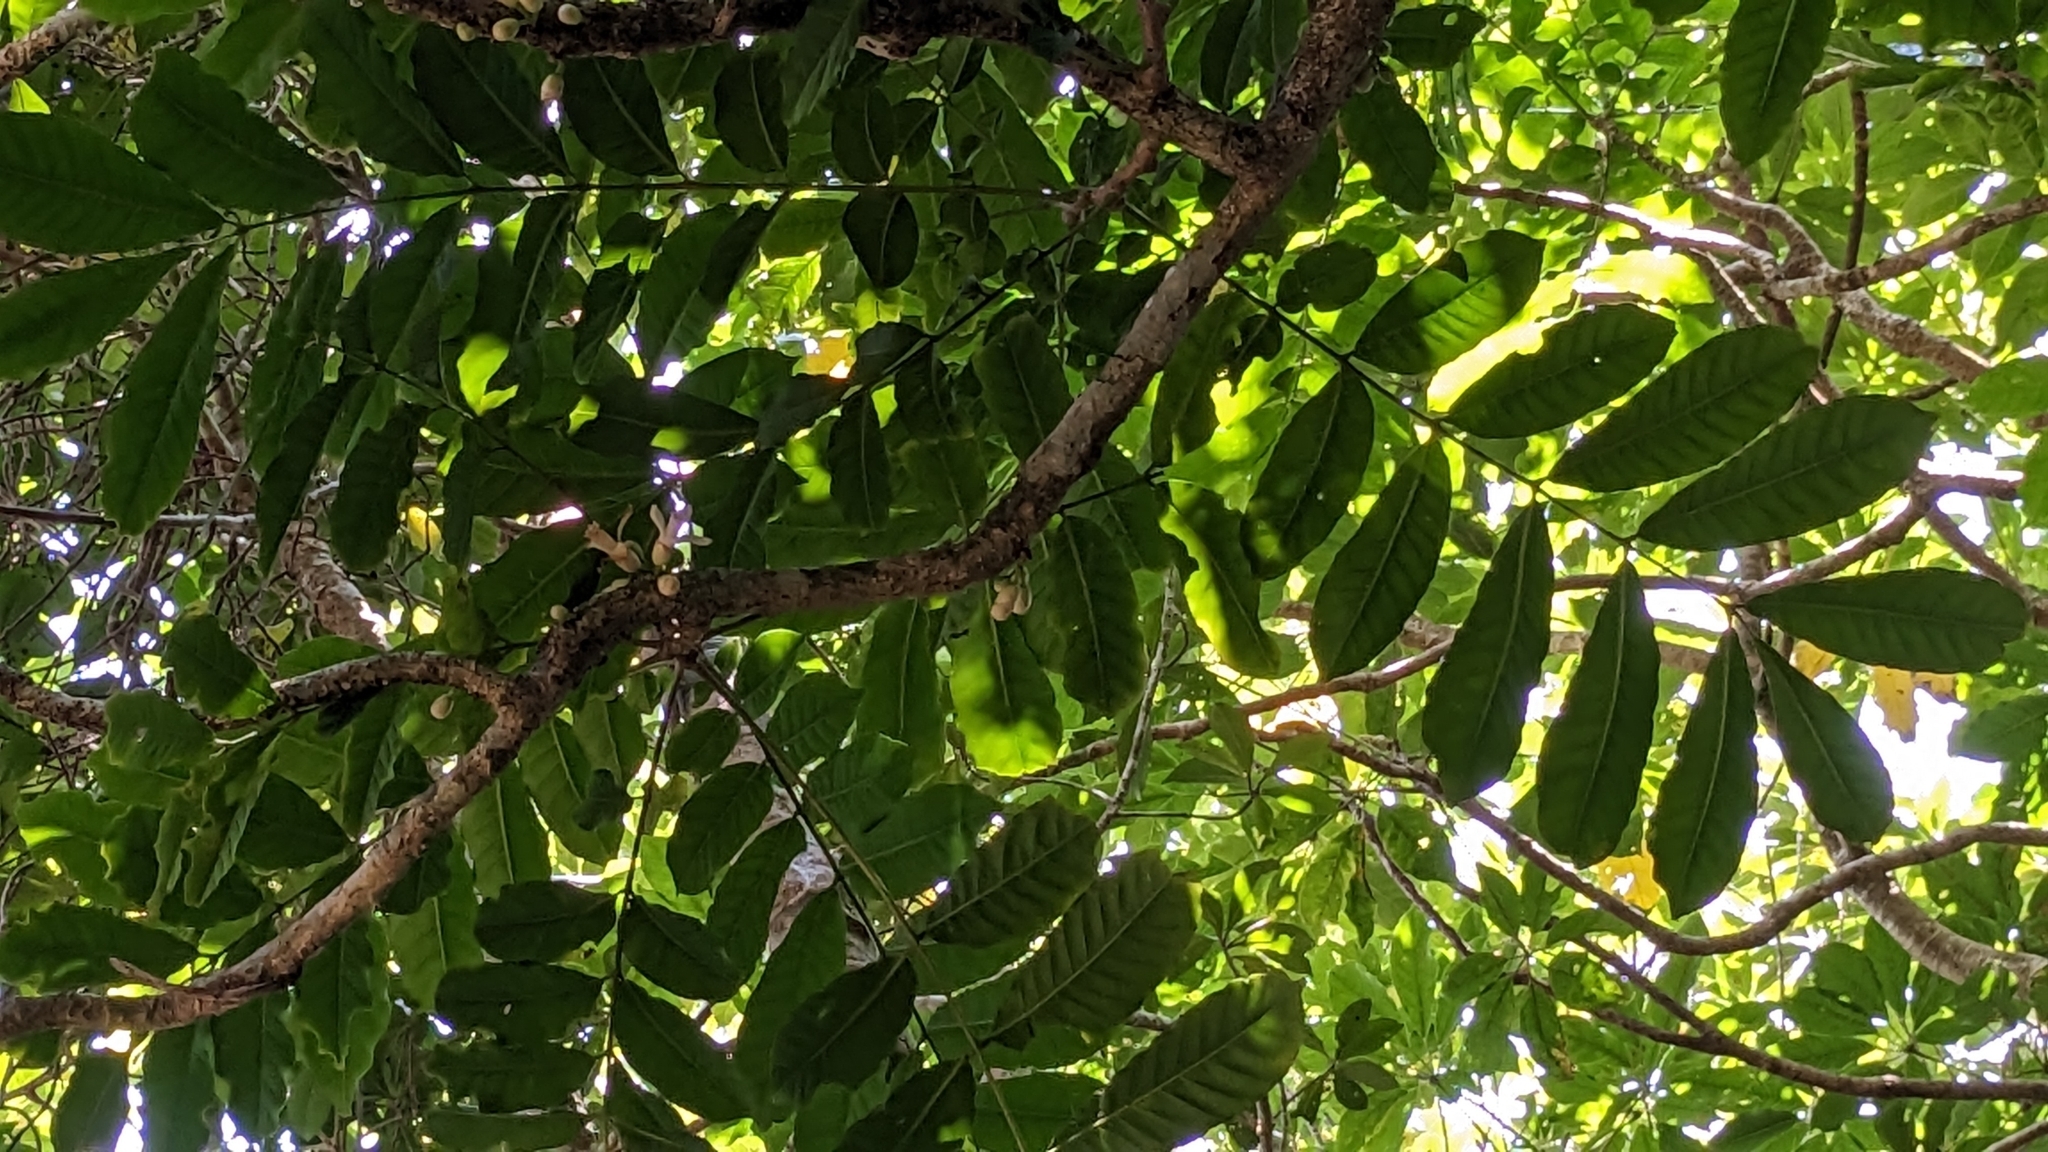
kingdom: Plantae
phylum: Tracheophyta
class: Magnoliopsida
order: Sapindales
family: Meliaceae
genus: Epicharis
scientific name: Epicharis cumingiana
